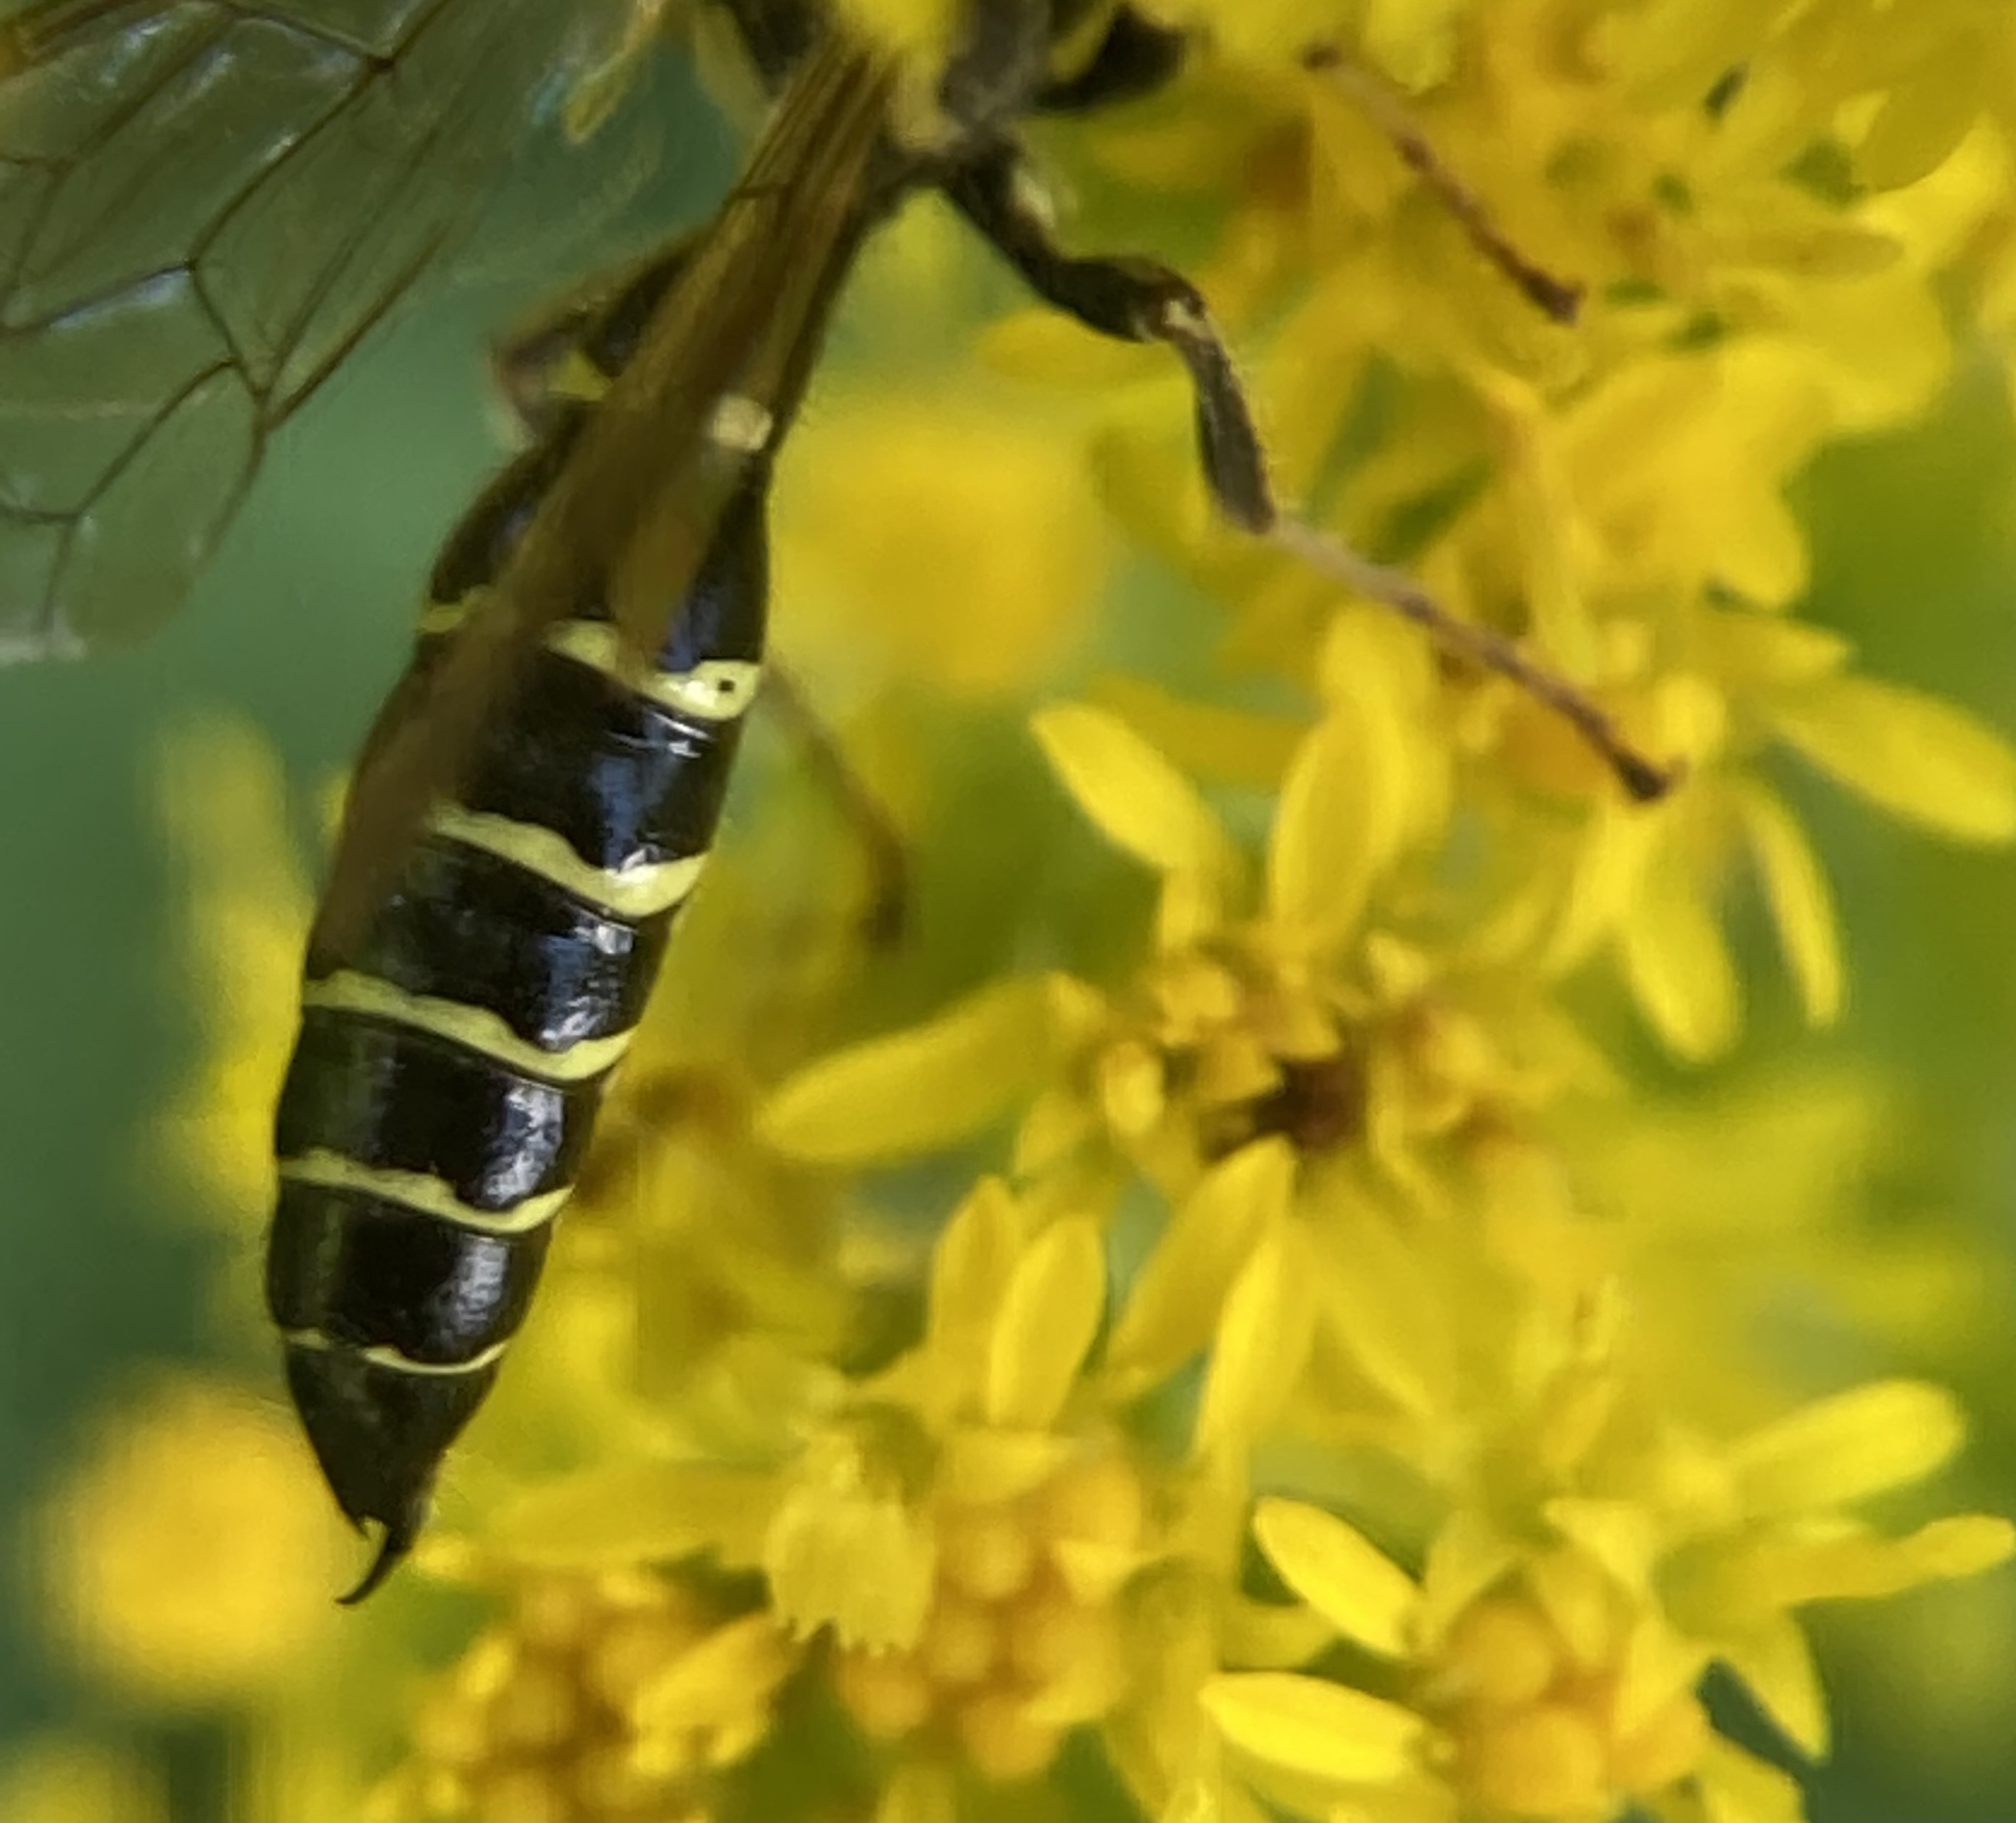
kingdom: Animalia
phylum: Arthropoda
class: Insecta
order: Hymenoptera
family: Tiphiidae
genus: Myzinum
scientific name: Myzinum maculatum
